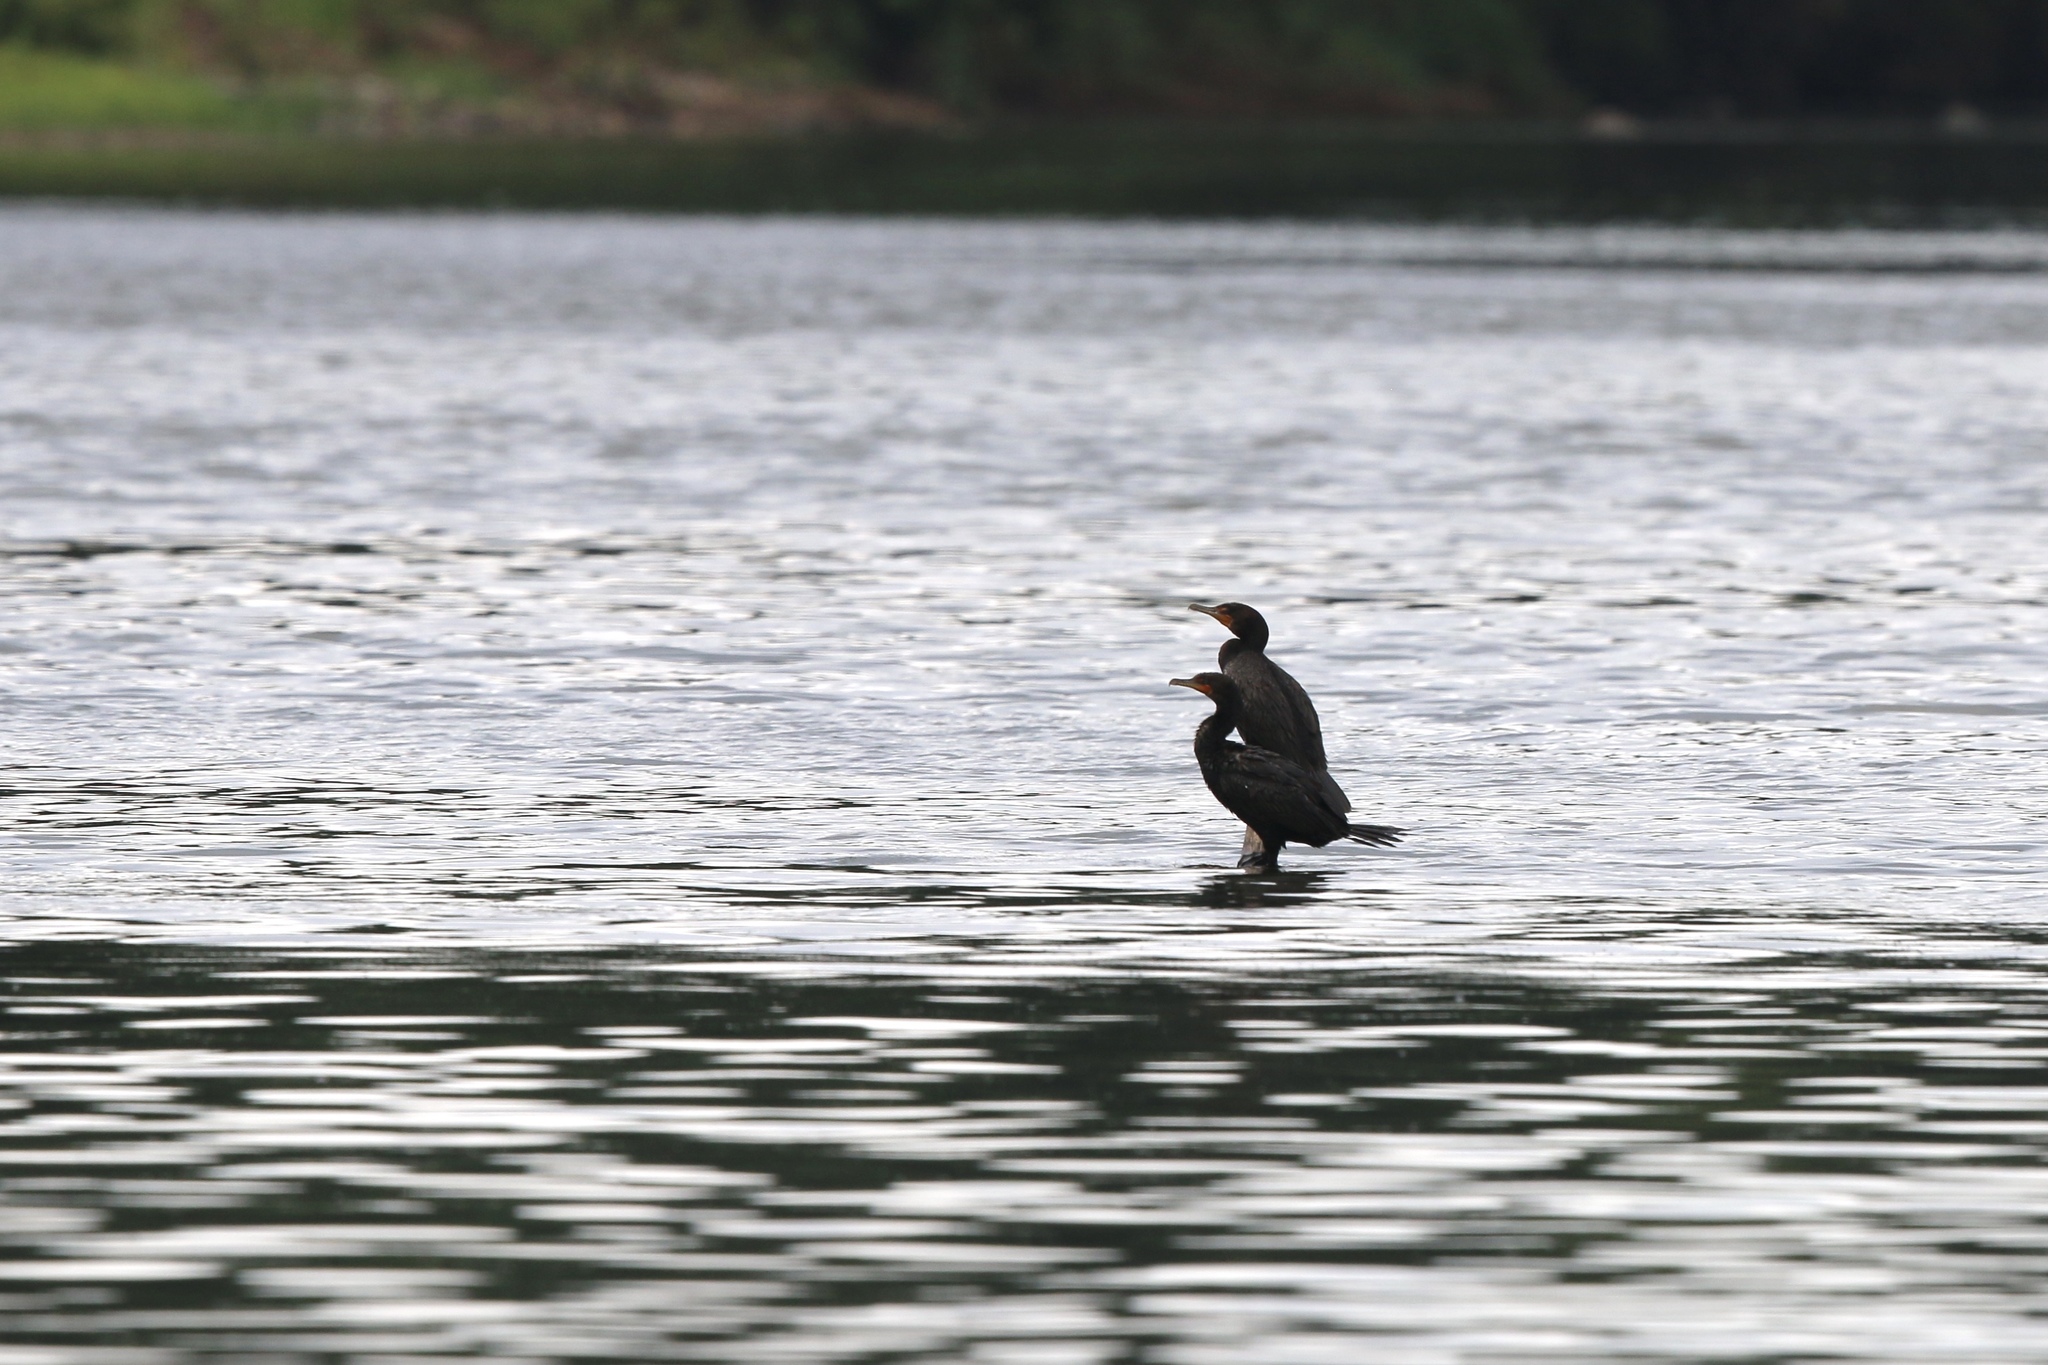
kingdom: Animalia
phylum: Chordata
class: Aves
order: Suliformes
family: Phalacrocoracidae
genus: Phalacrocorax
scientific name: Phalacrocorax auritus
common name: Double-crested cormorant
